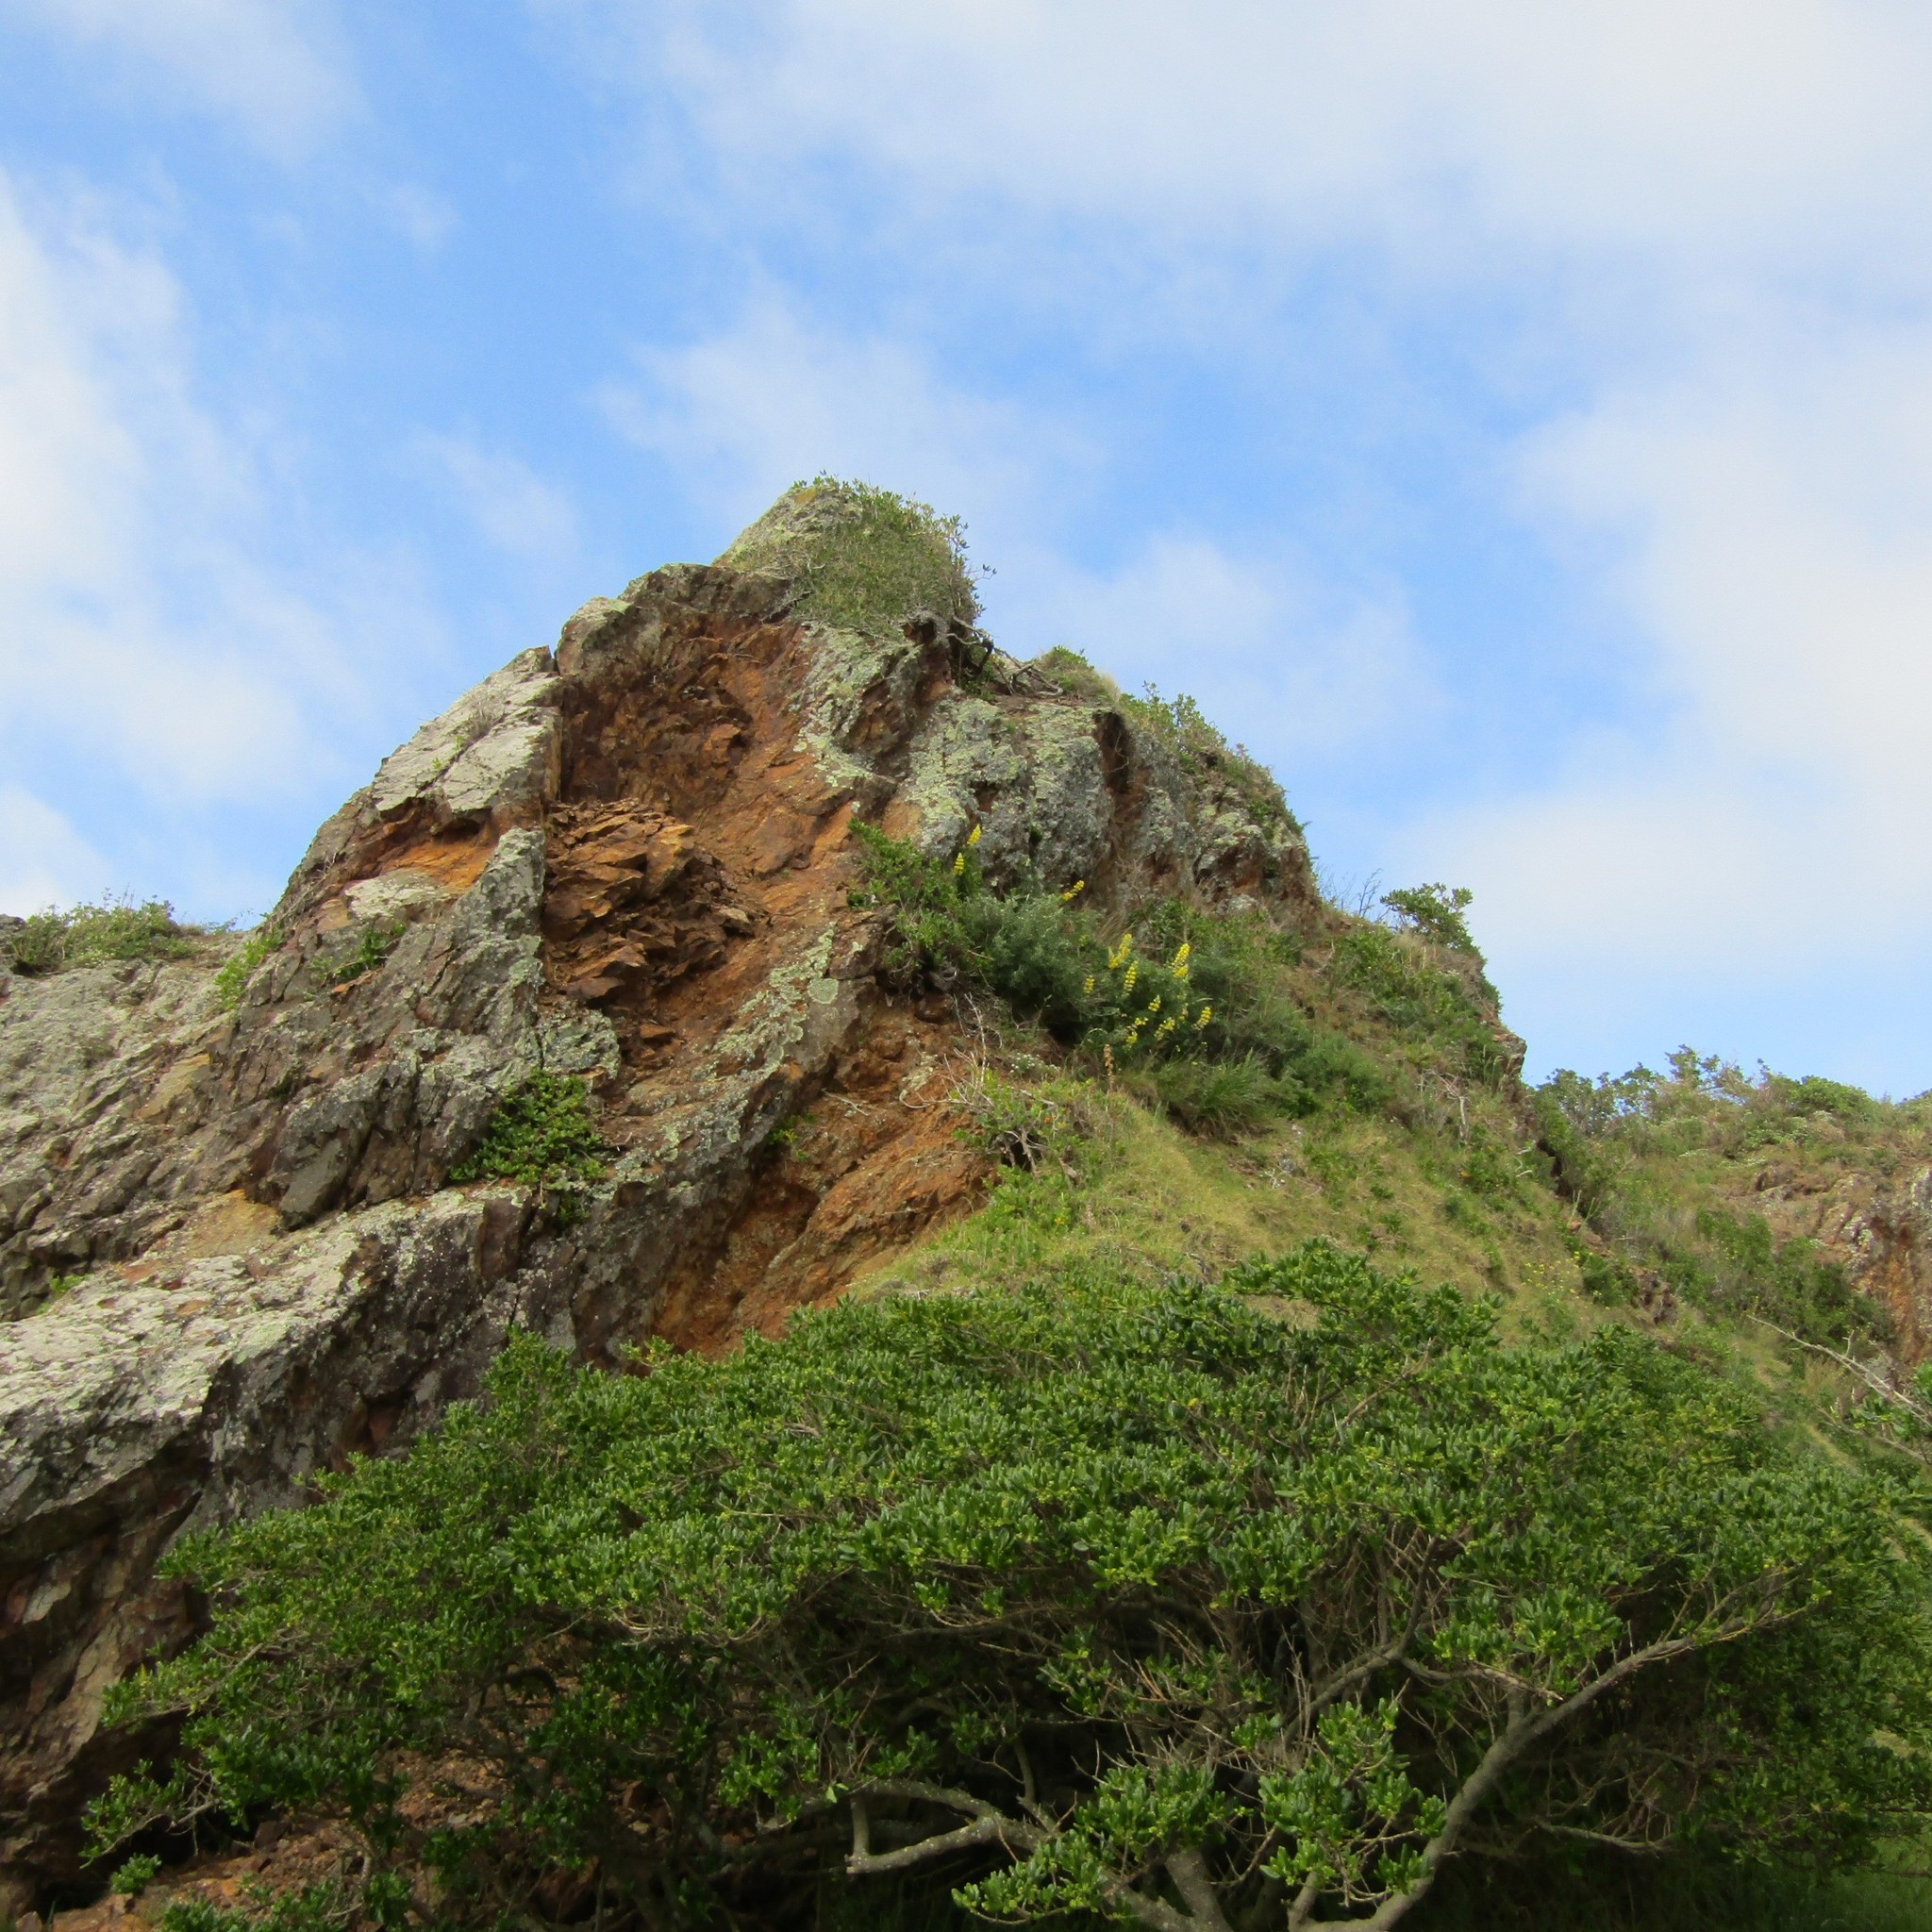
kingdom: Plantae
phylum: Tracheophyta
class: Magnoliopsida
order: Fabales
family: Fabaceae
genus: Lupinus
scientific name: Lupinus arboreus
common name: Yellow bush lupine
